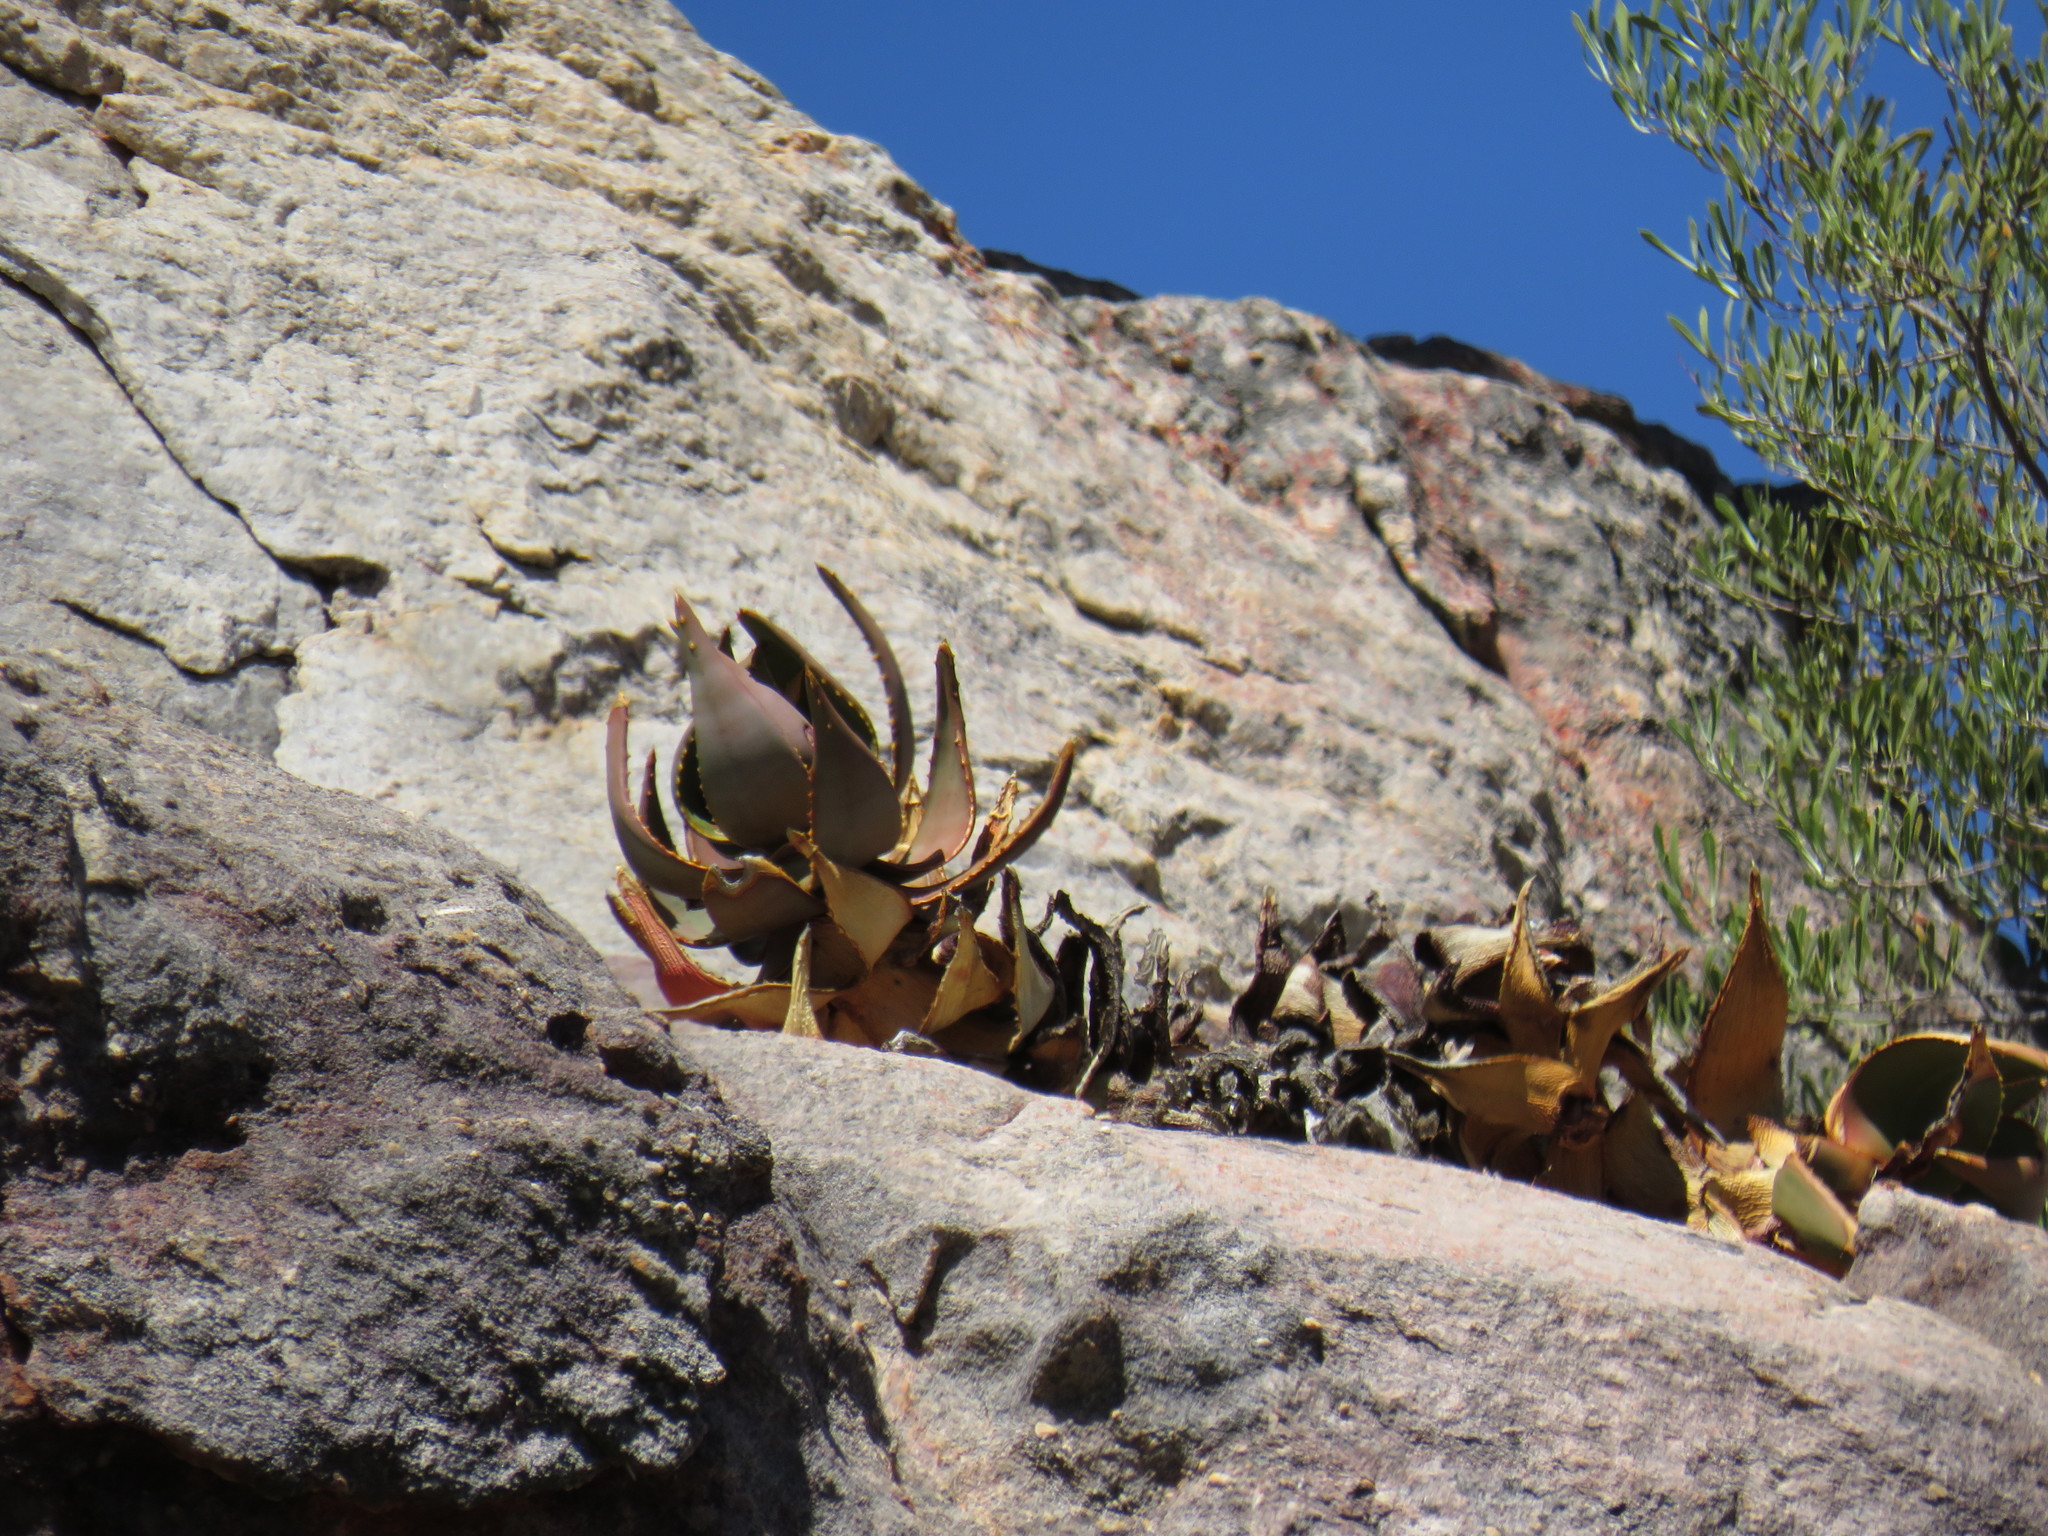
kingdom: Plantae
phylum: Tracheophyta
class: Liliopsida
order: Asparagales
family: Asphodelaceae
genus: Aloe
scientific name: Aloe perfoliata
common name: Mitra aloe
